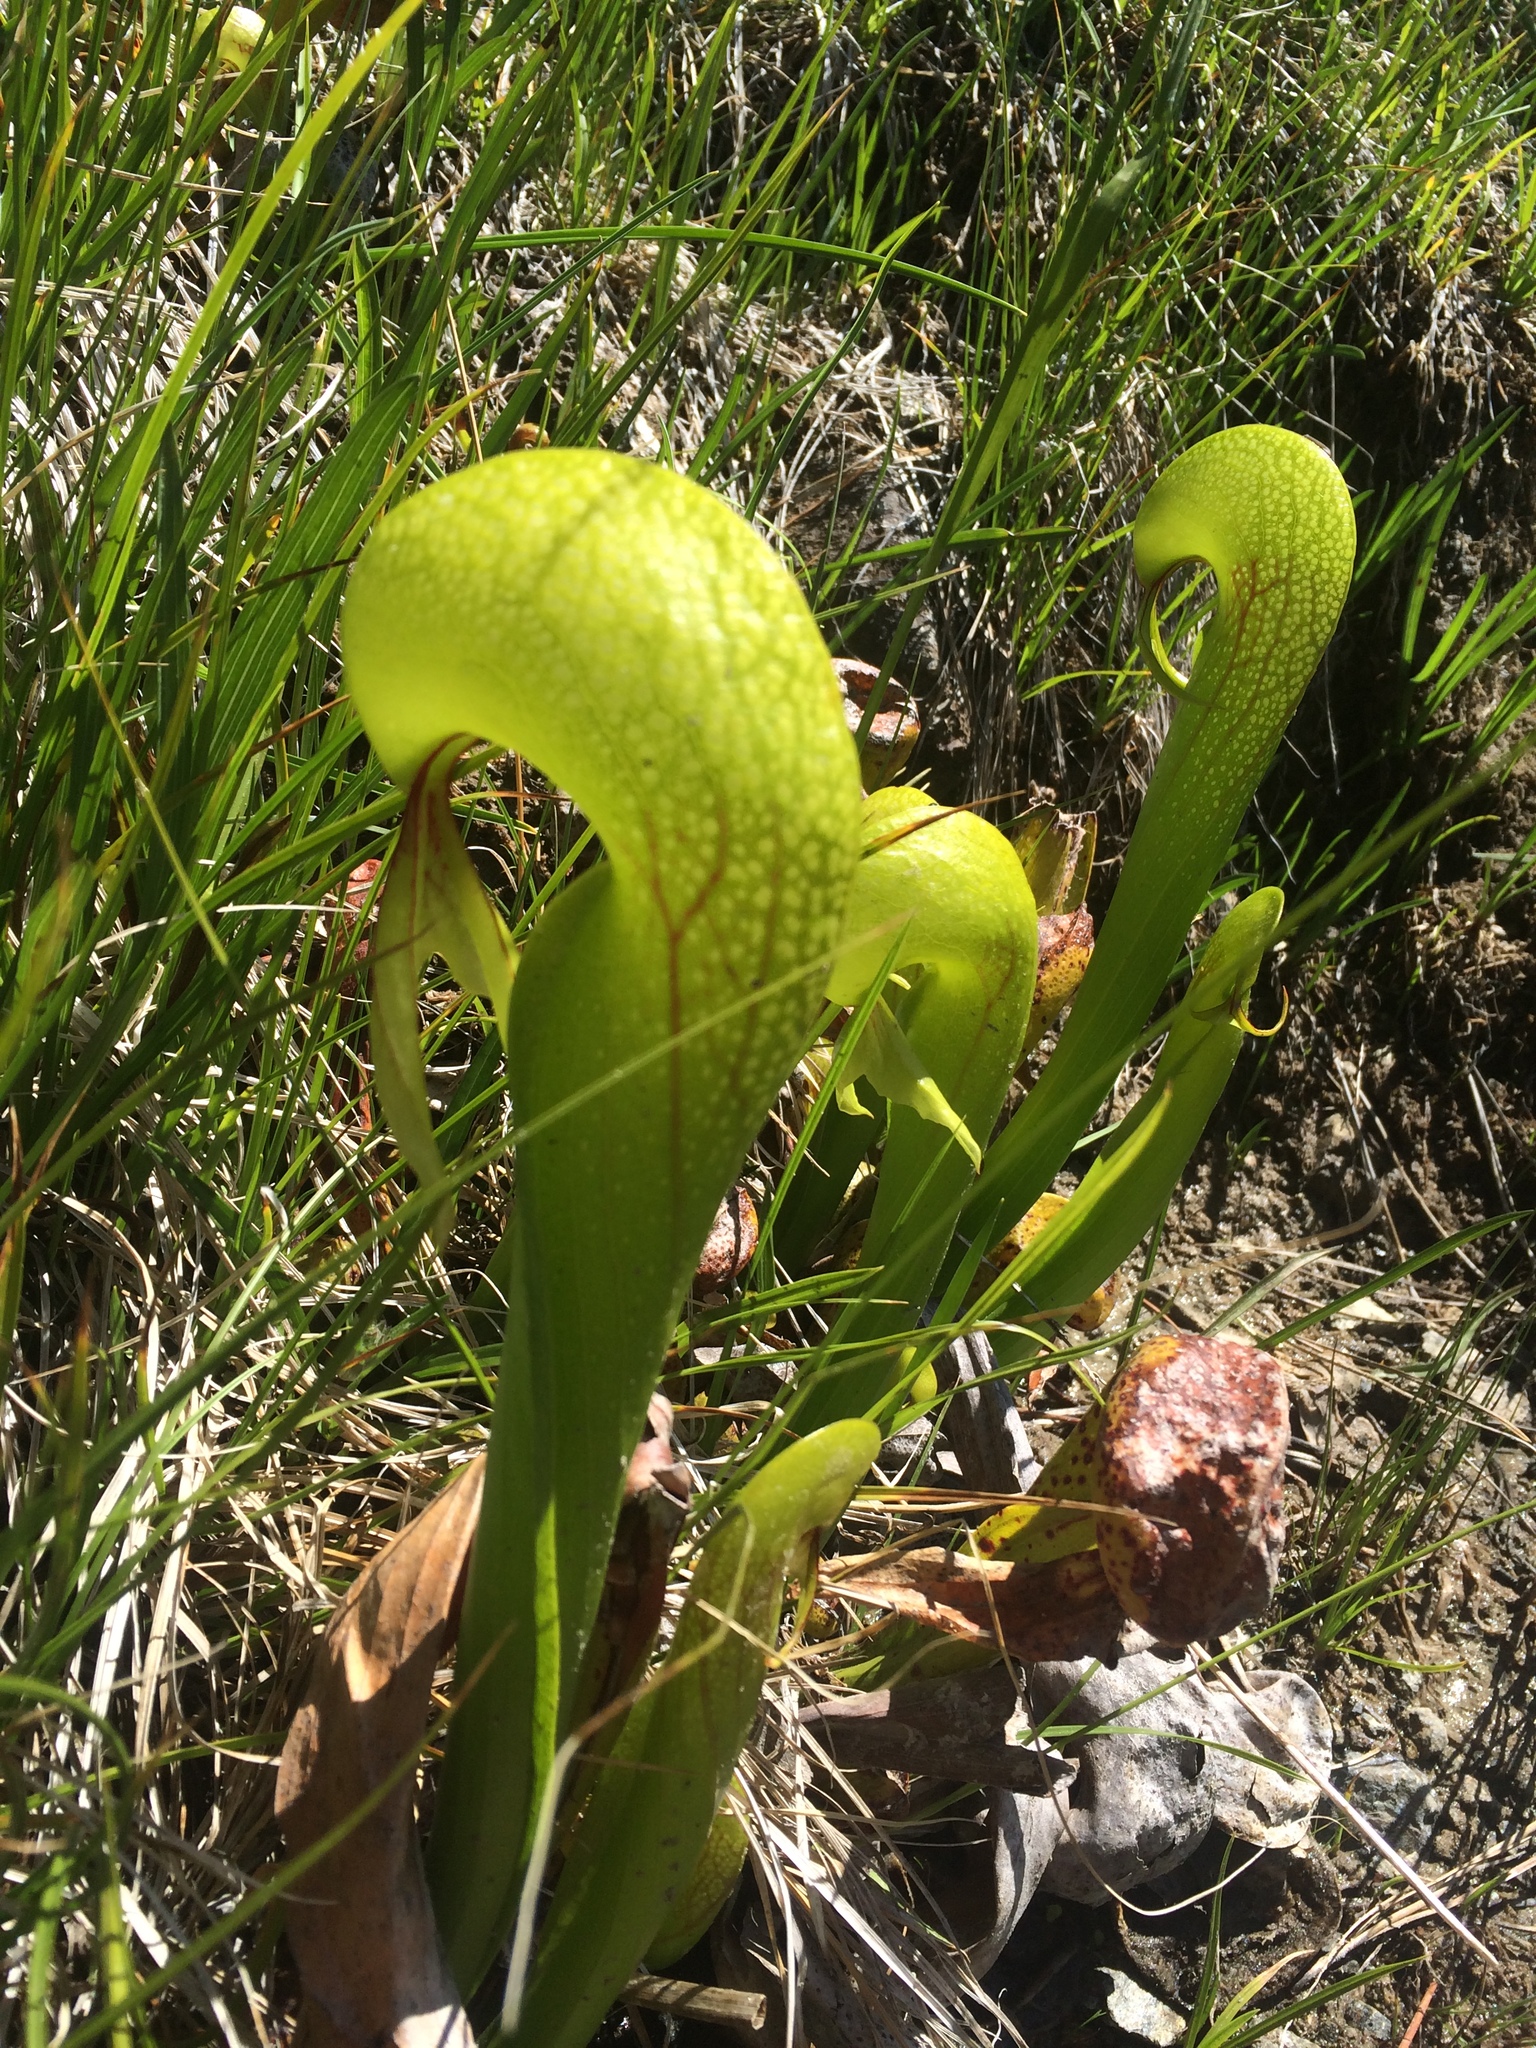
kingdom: Plantae
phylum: Tracheophyta
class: Magnoliopsida
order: Ericales
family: Sarraceniaceae
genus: Darlingtonia
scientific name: Darlingtonia californica
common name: California pitcher plant
